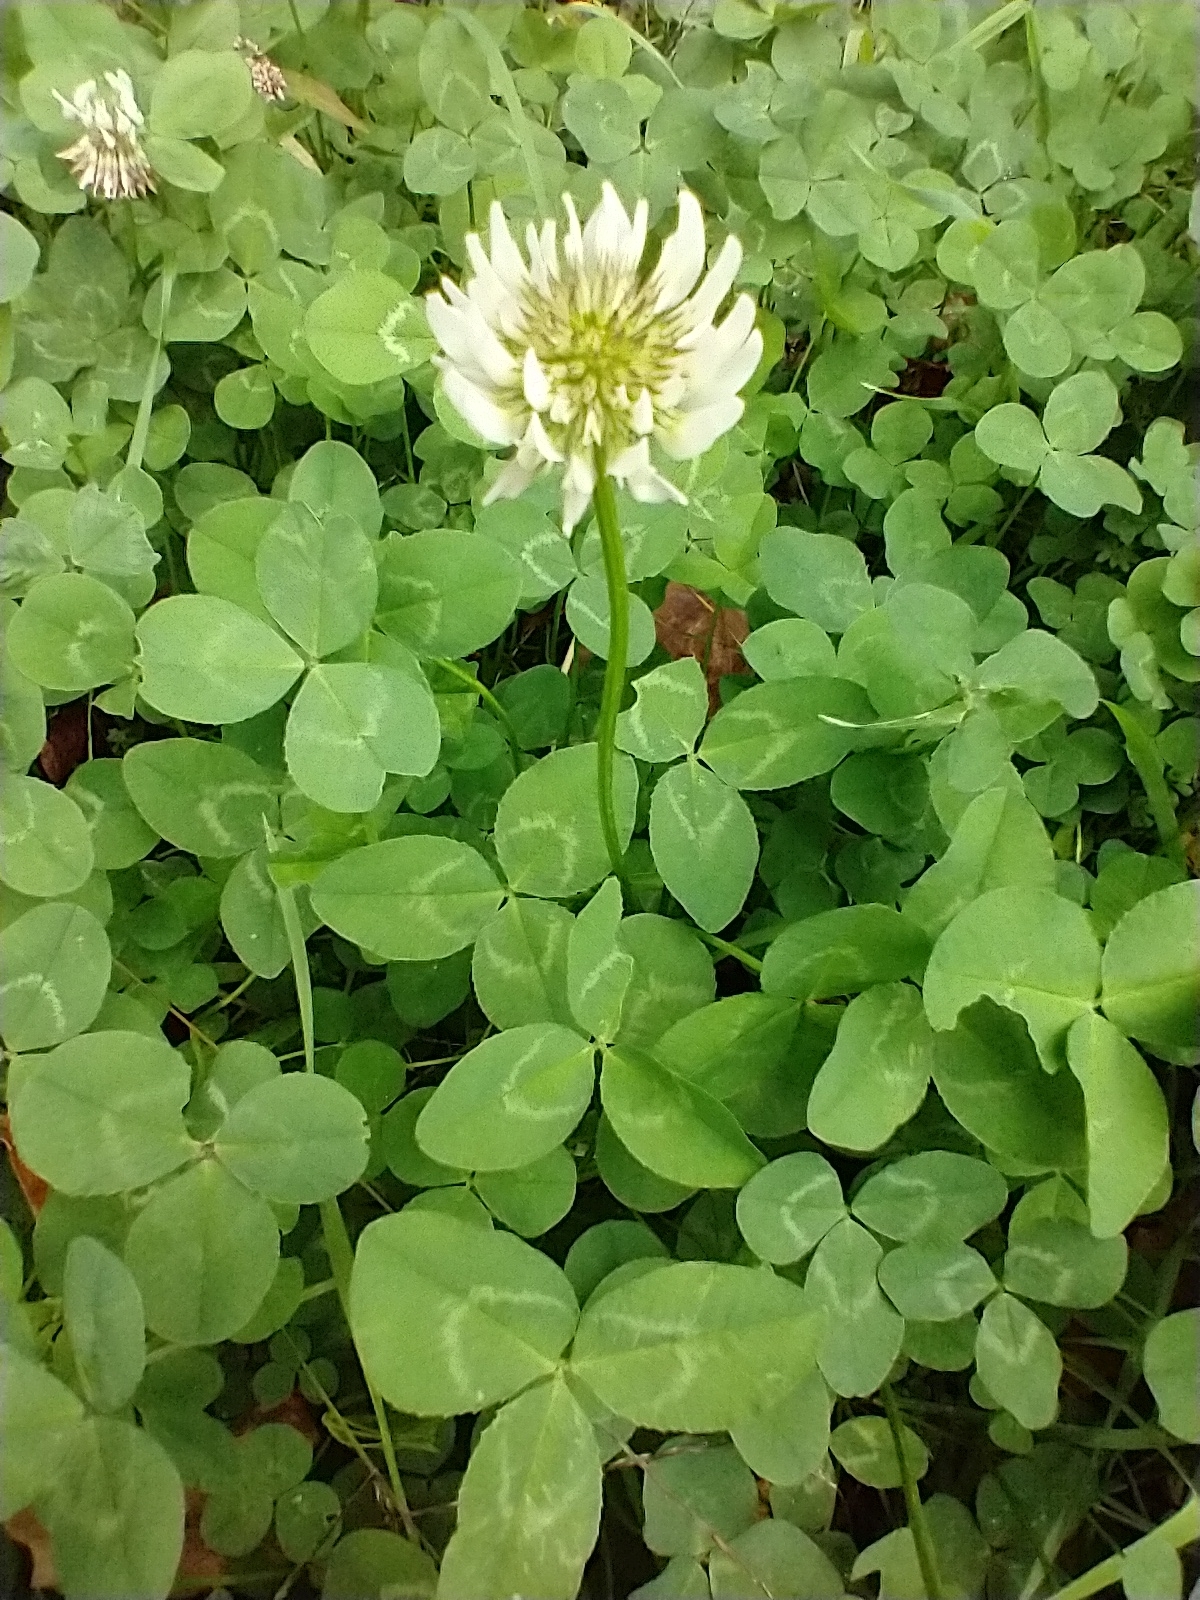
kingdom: Plantae
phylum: Tracheophyta
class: Magnoliopsida
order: Fabales
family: Fabaceae
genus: Trifolium
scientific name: Trifolium repens
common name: White clover
